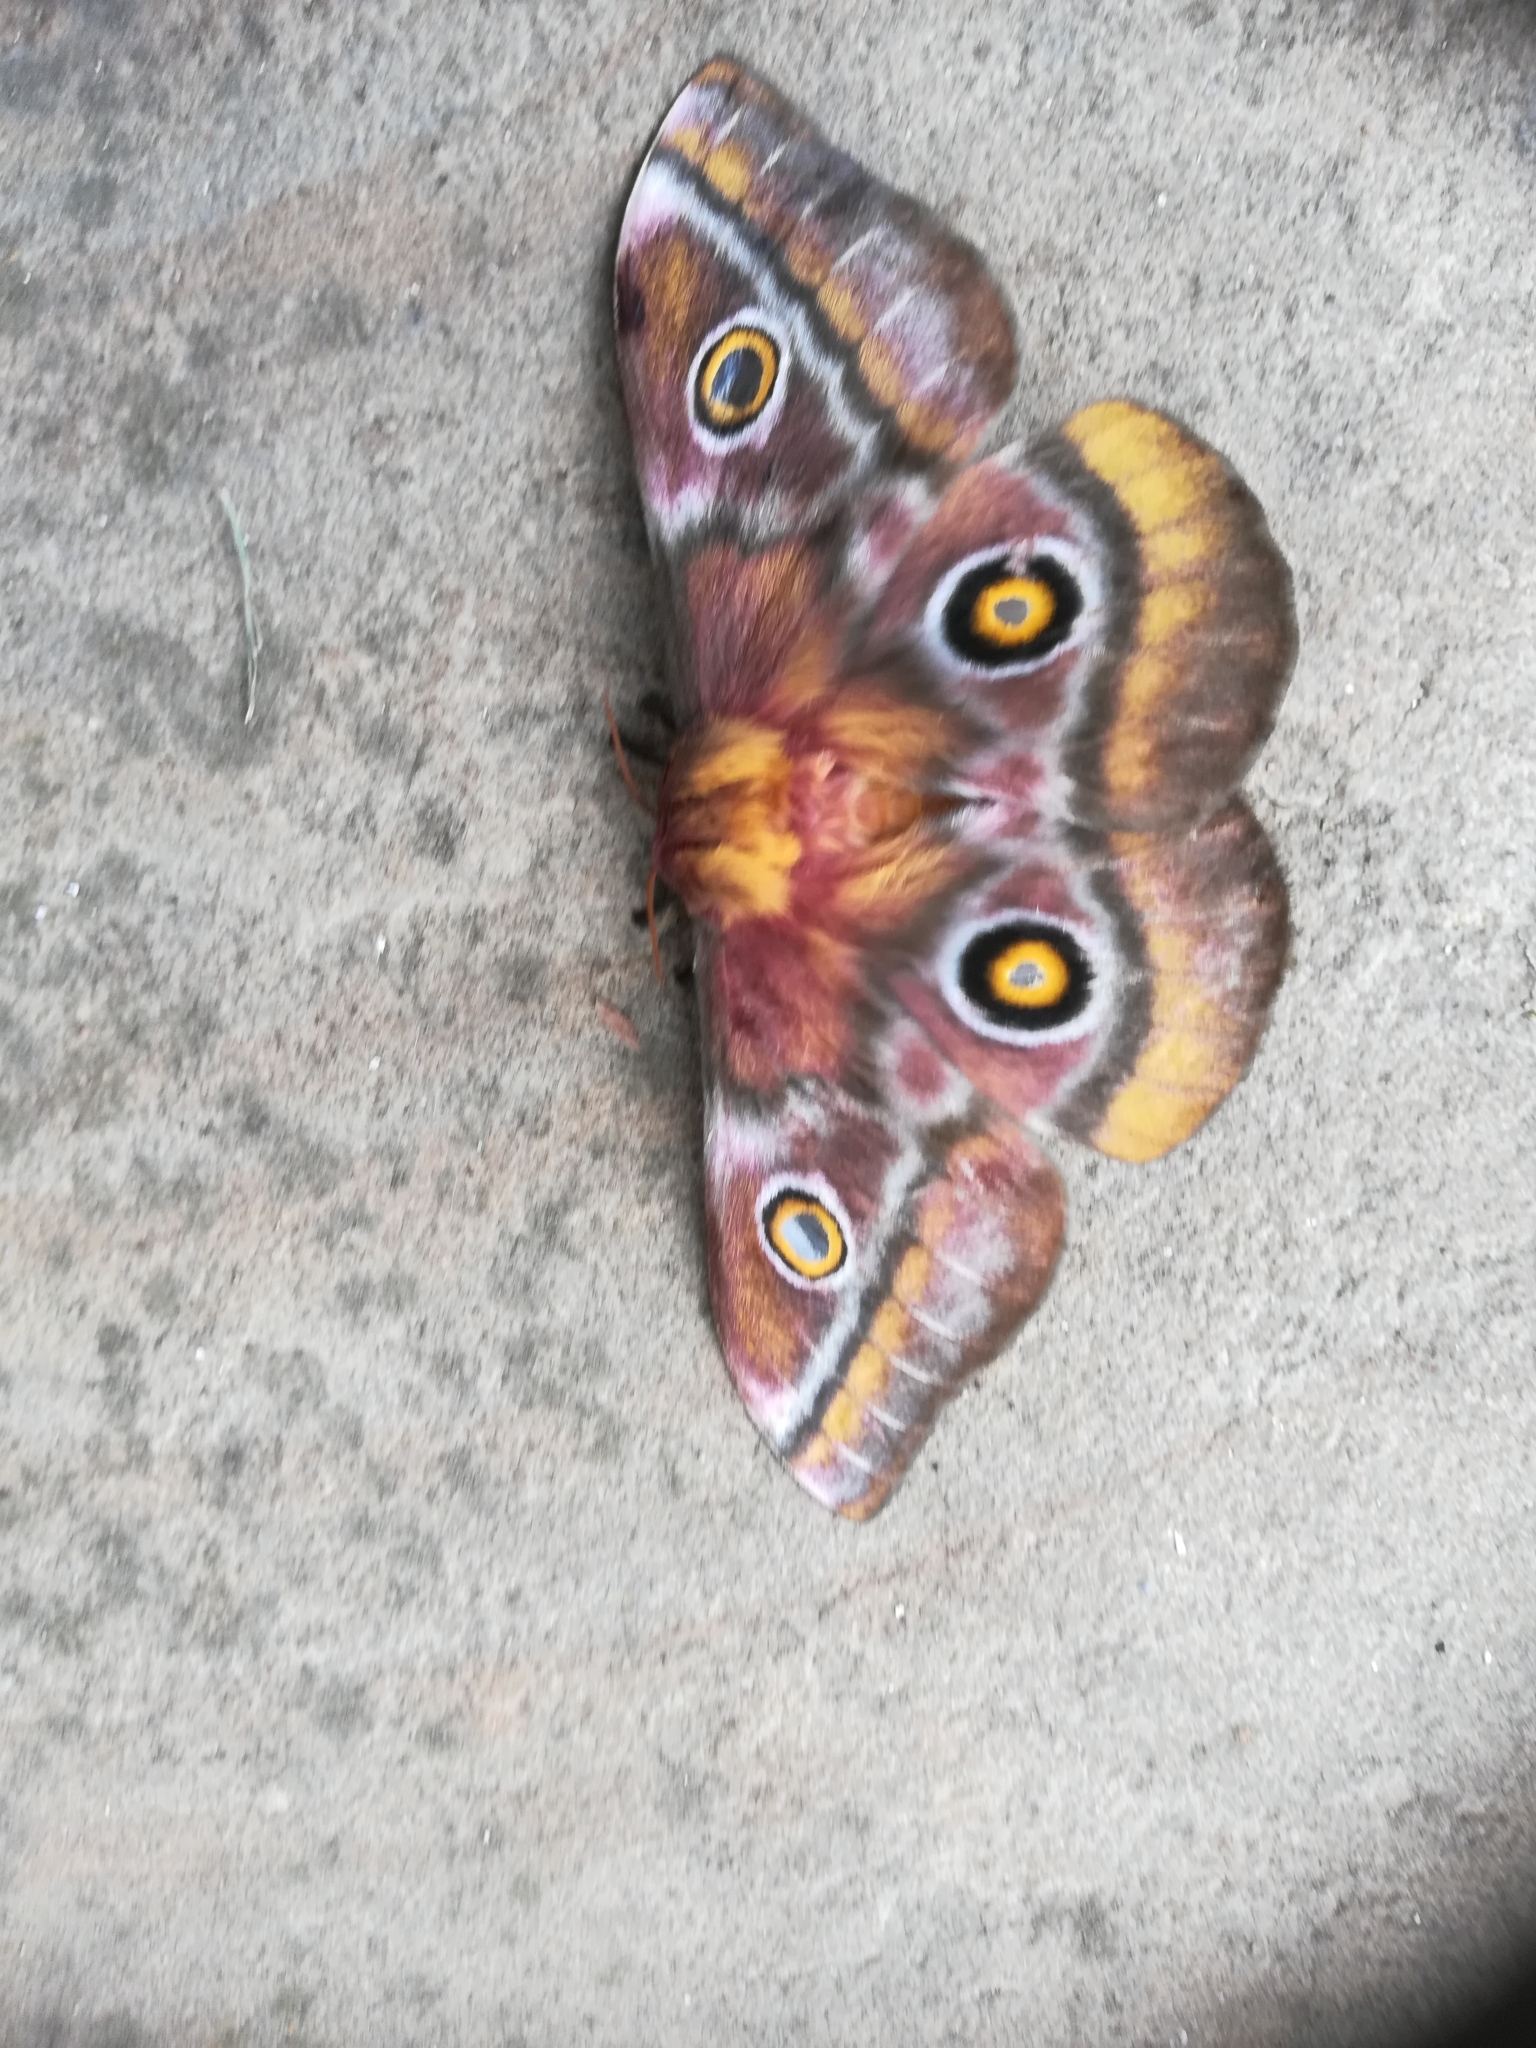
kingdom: Animalia
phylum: Arthropoda
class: Insecta
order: Lepidoptera
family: Saturniidae
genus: Nudaurelia
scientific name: Nudaurelia cytherea
